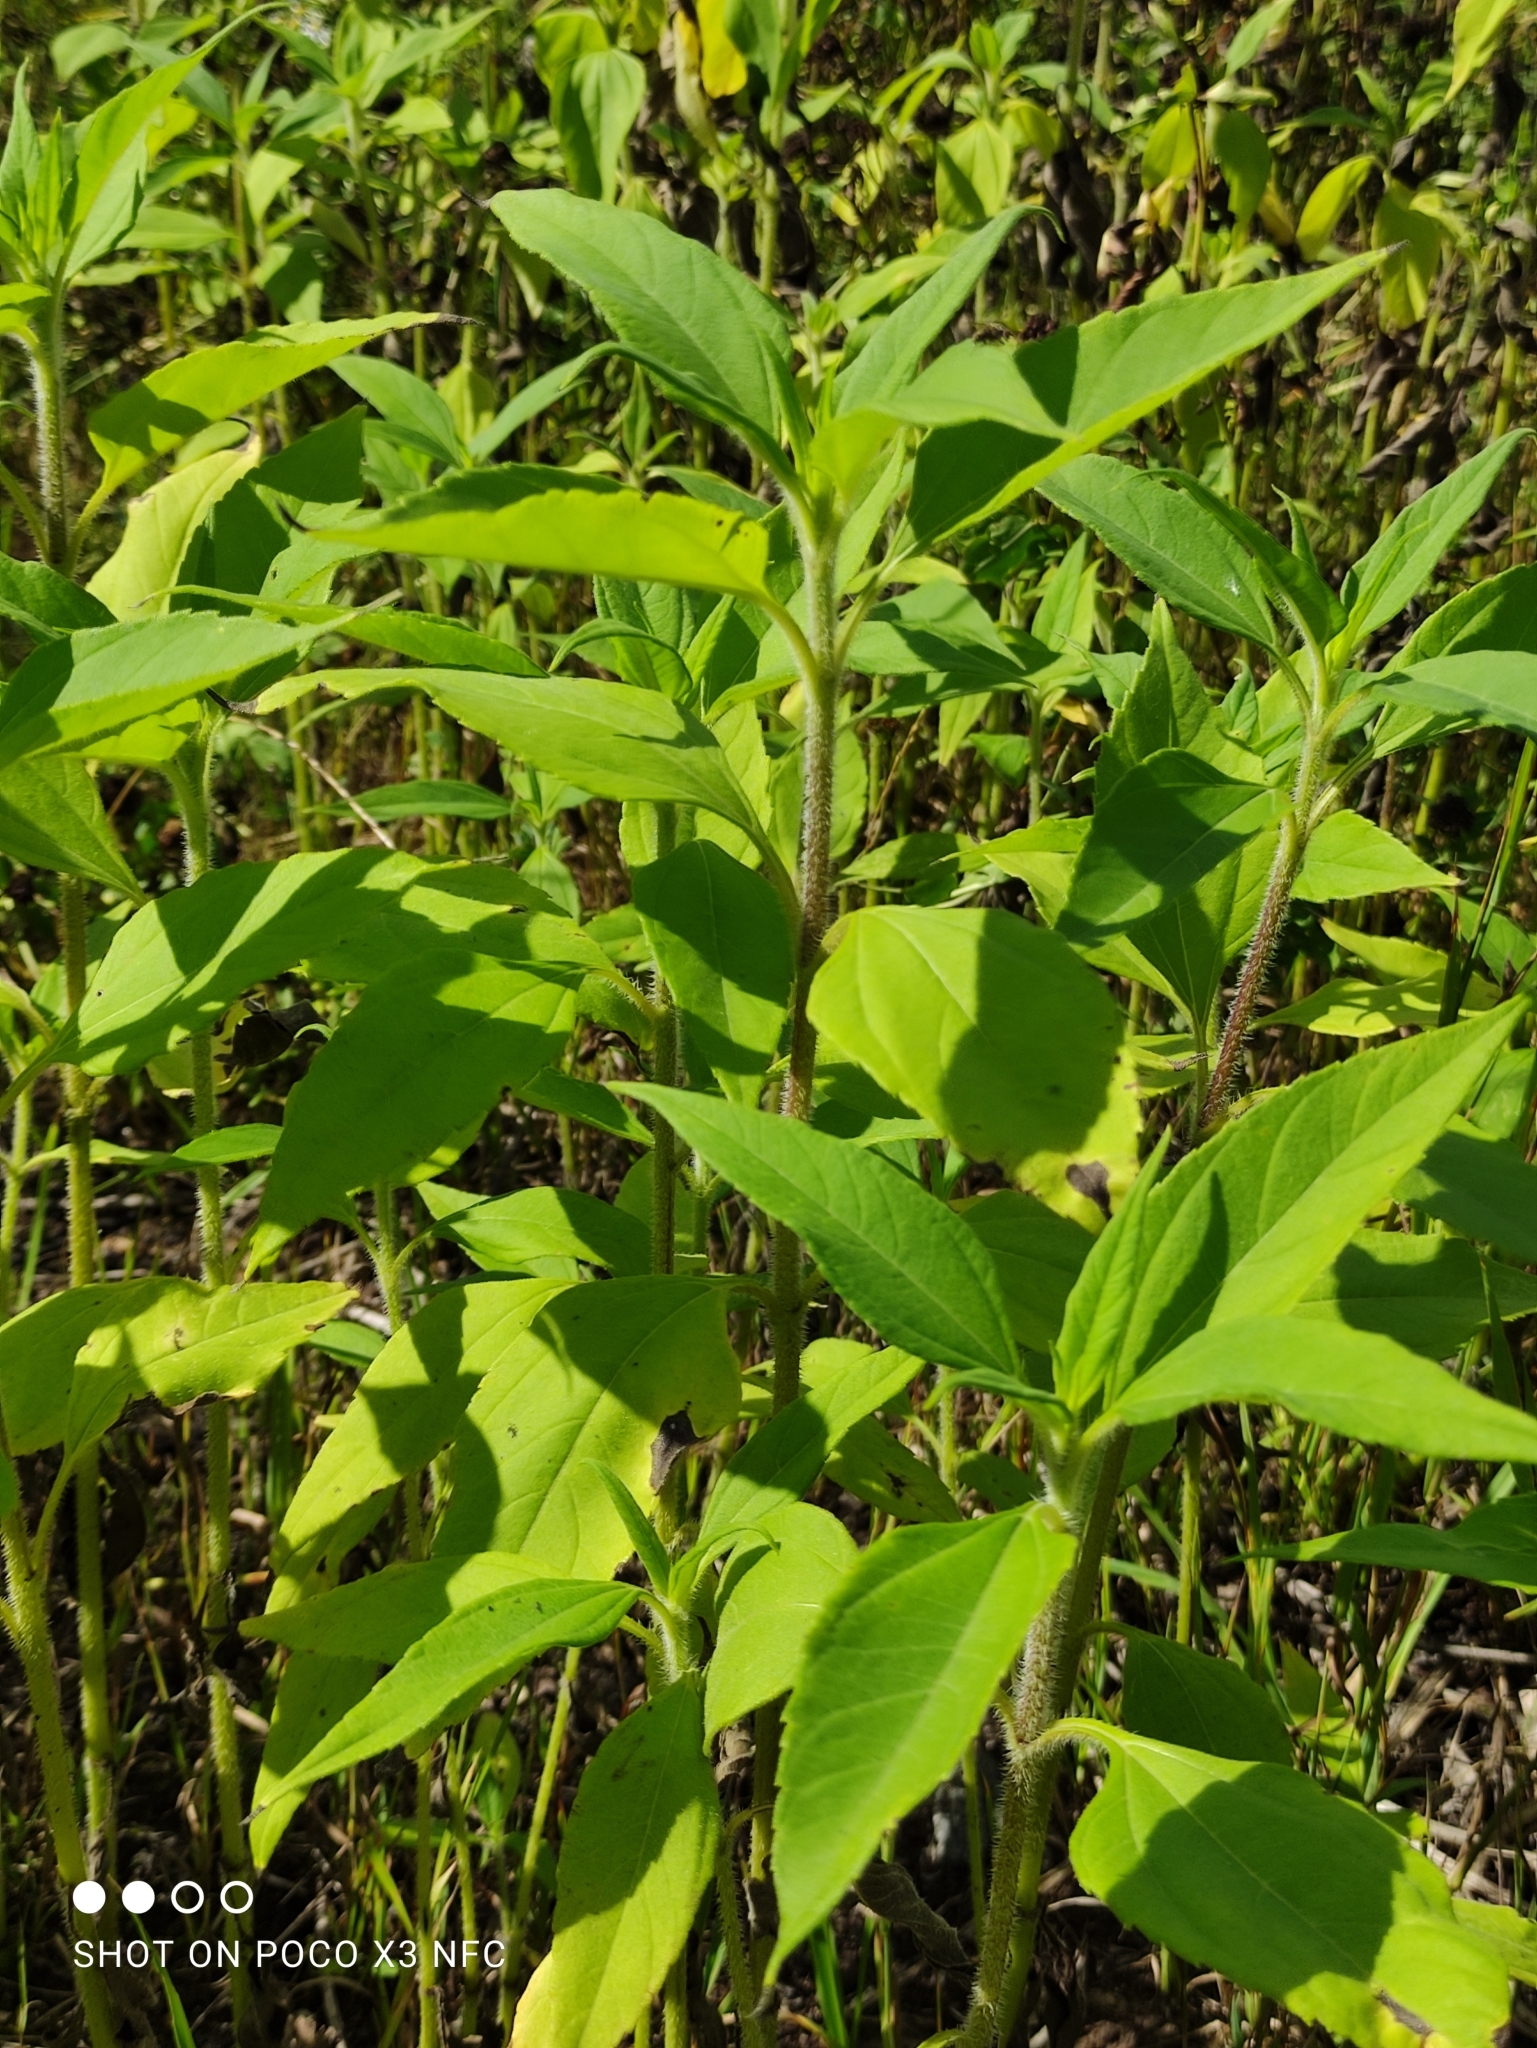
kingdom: Plantae
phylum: Tracheophyta
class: Magnoliopsida
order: Asterales
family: Asteraceae
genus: Helianthus
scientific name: Helianthus tuberosus
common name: Jerusalem artichoke
